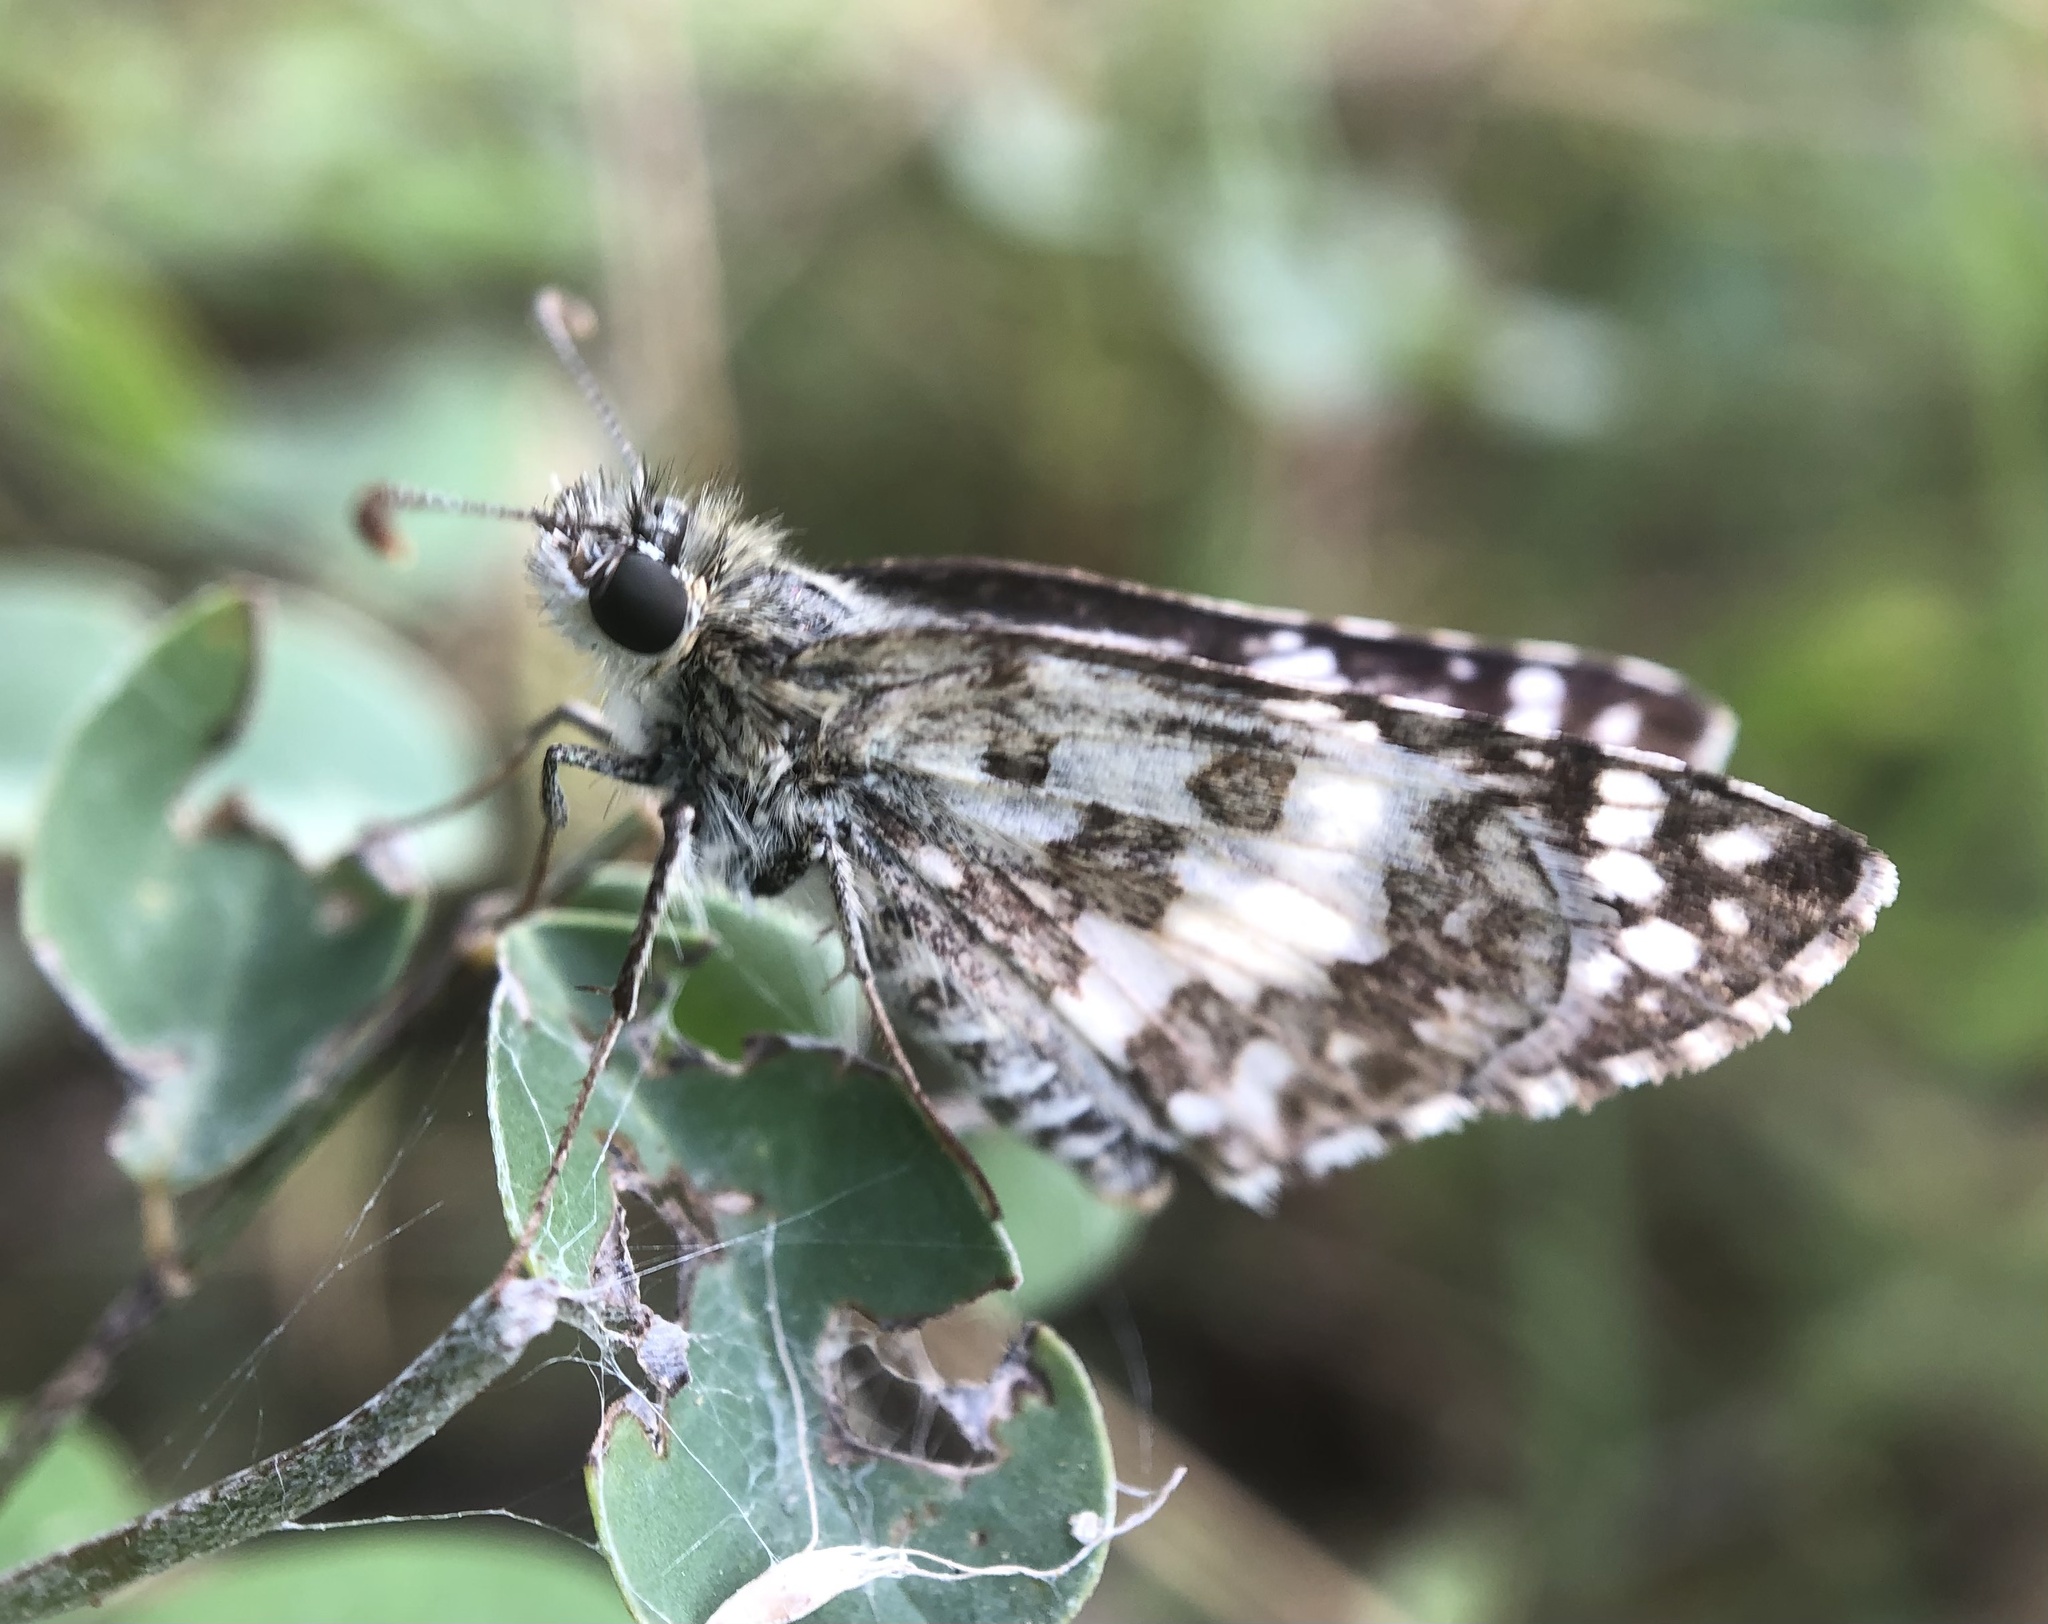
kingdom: Animalia
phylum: Arthropoda
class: Insecta
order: Lepidoptera
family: Hesperiidae
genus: Burnsius
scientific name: Burnsius adepta
